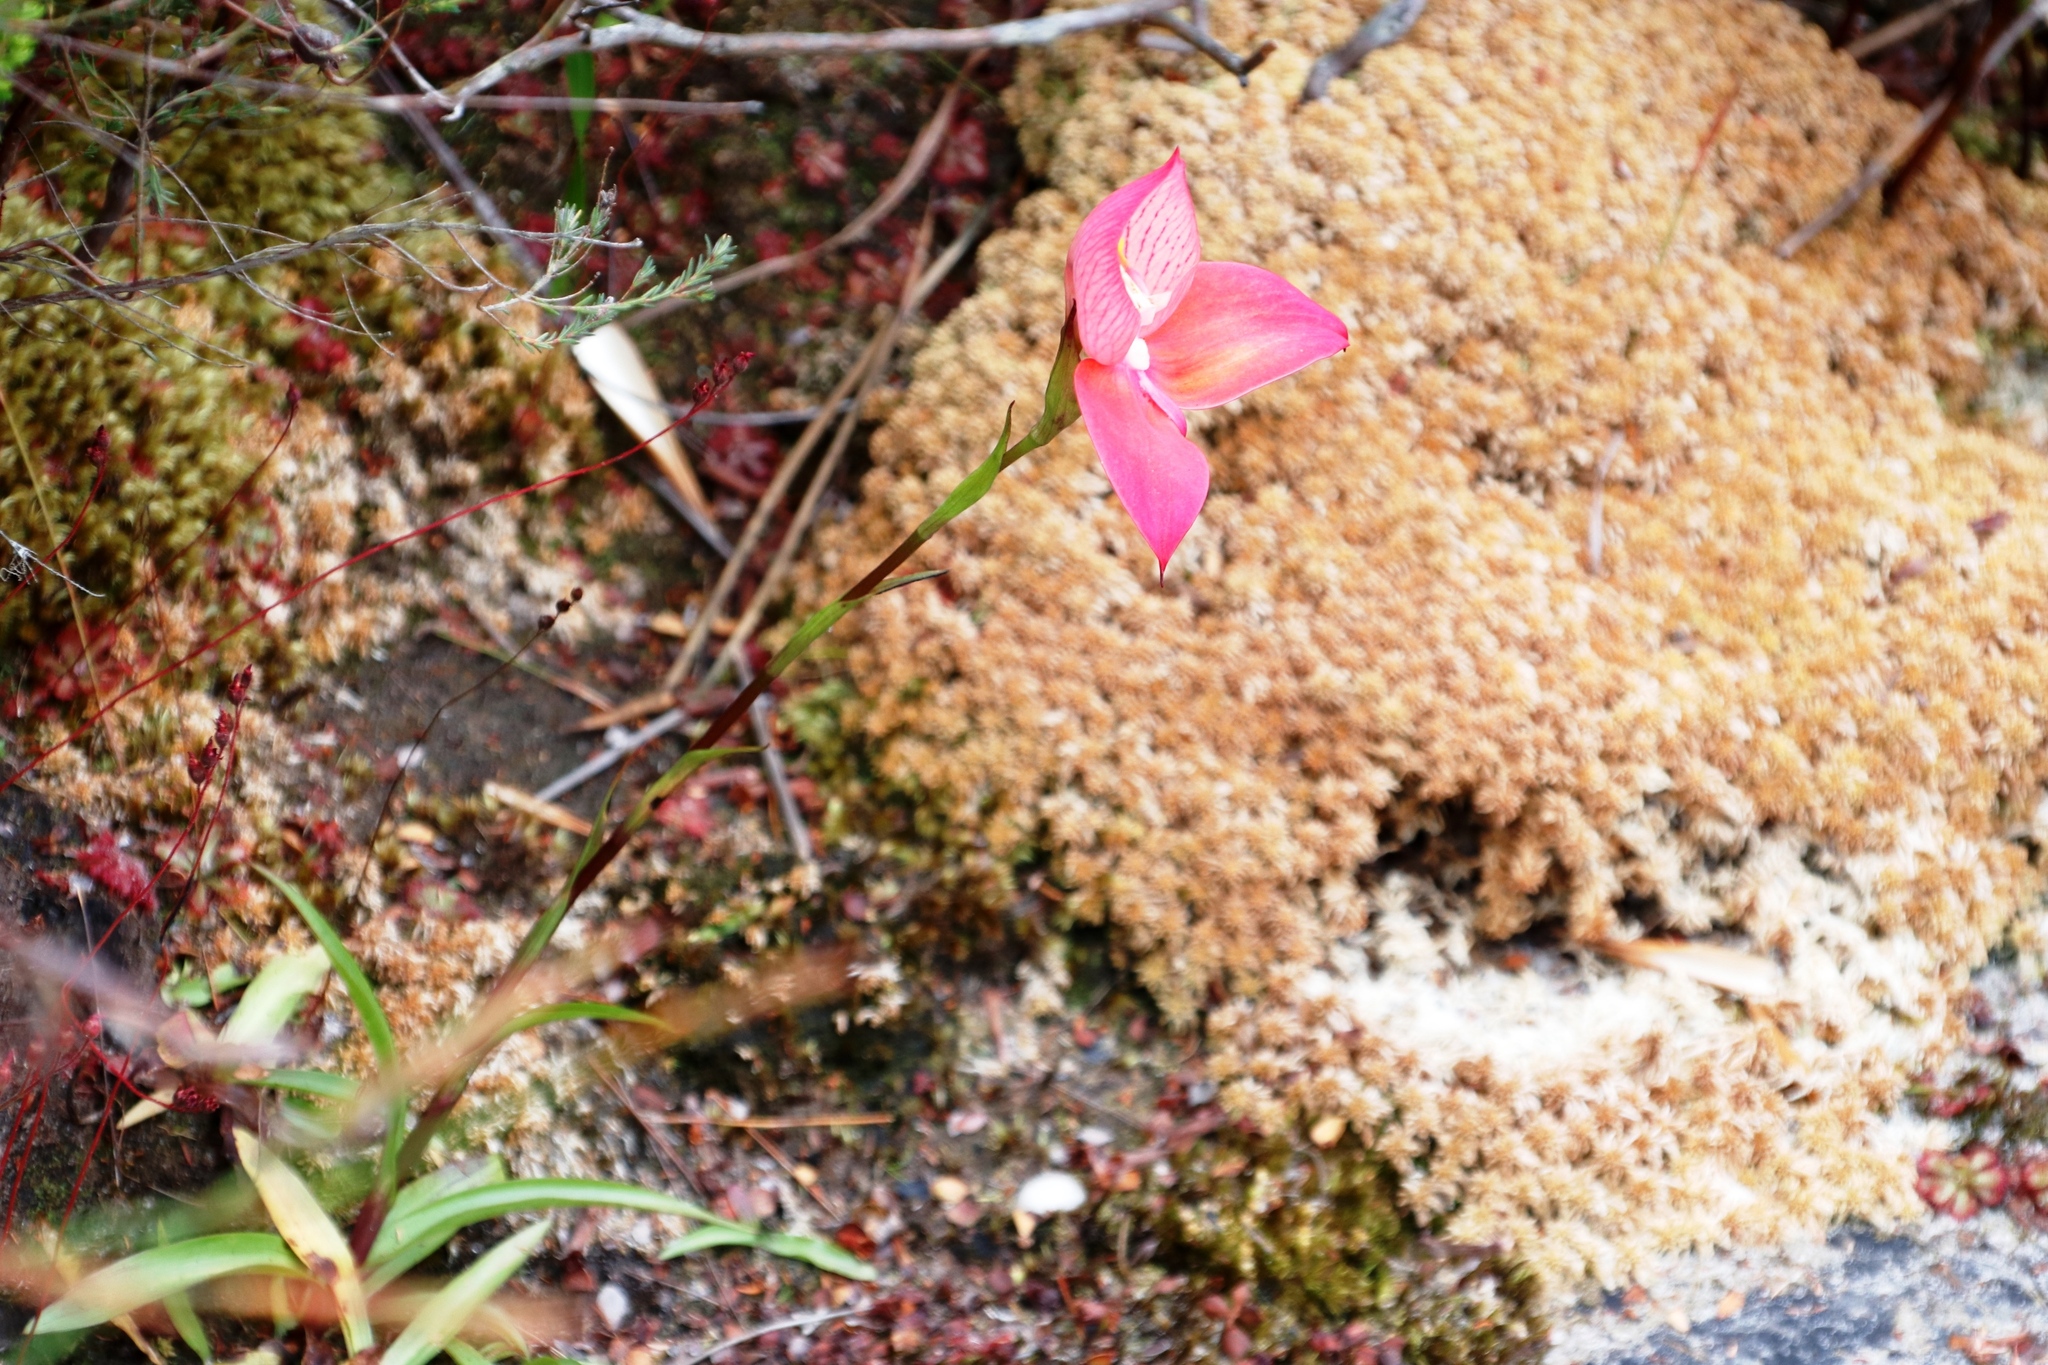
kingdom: Plantae
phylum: Tracheophyta
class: Liliopsida
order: Asparagales
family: Orchidaceae
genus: Disa
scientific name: Disa uniflora
